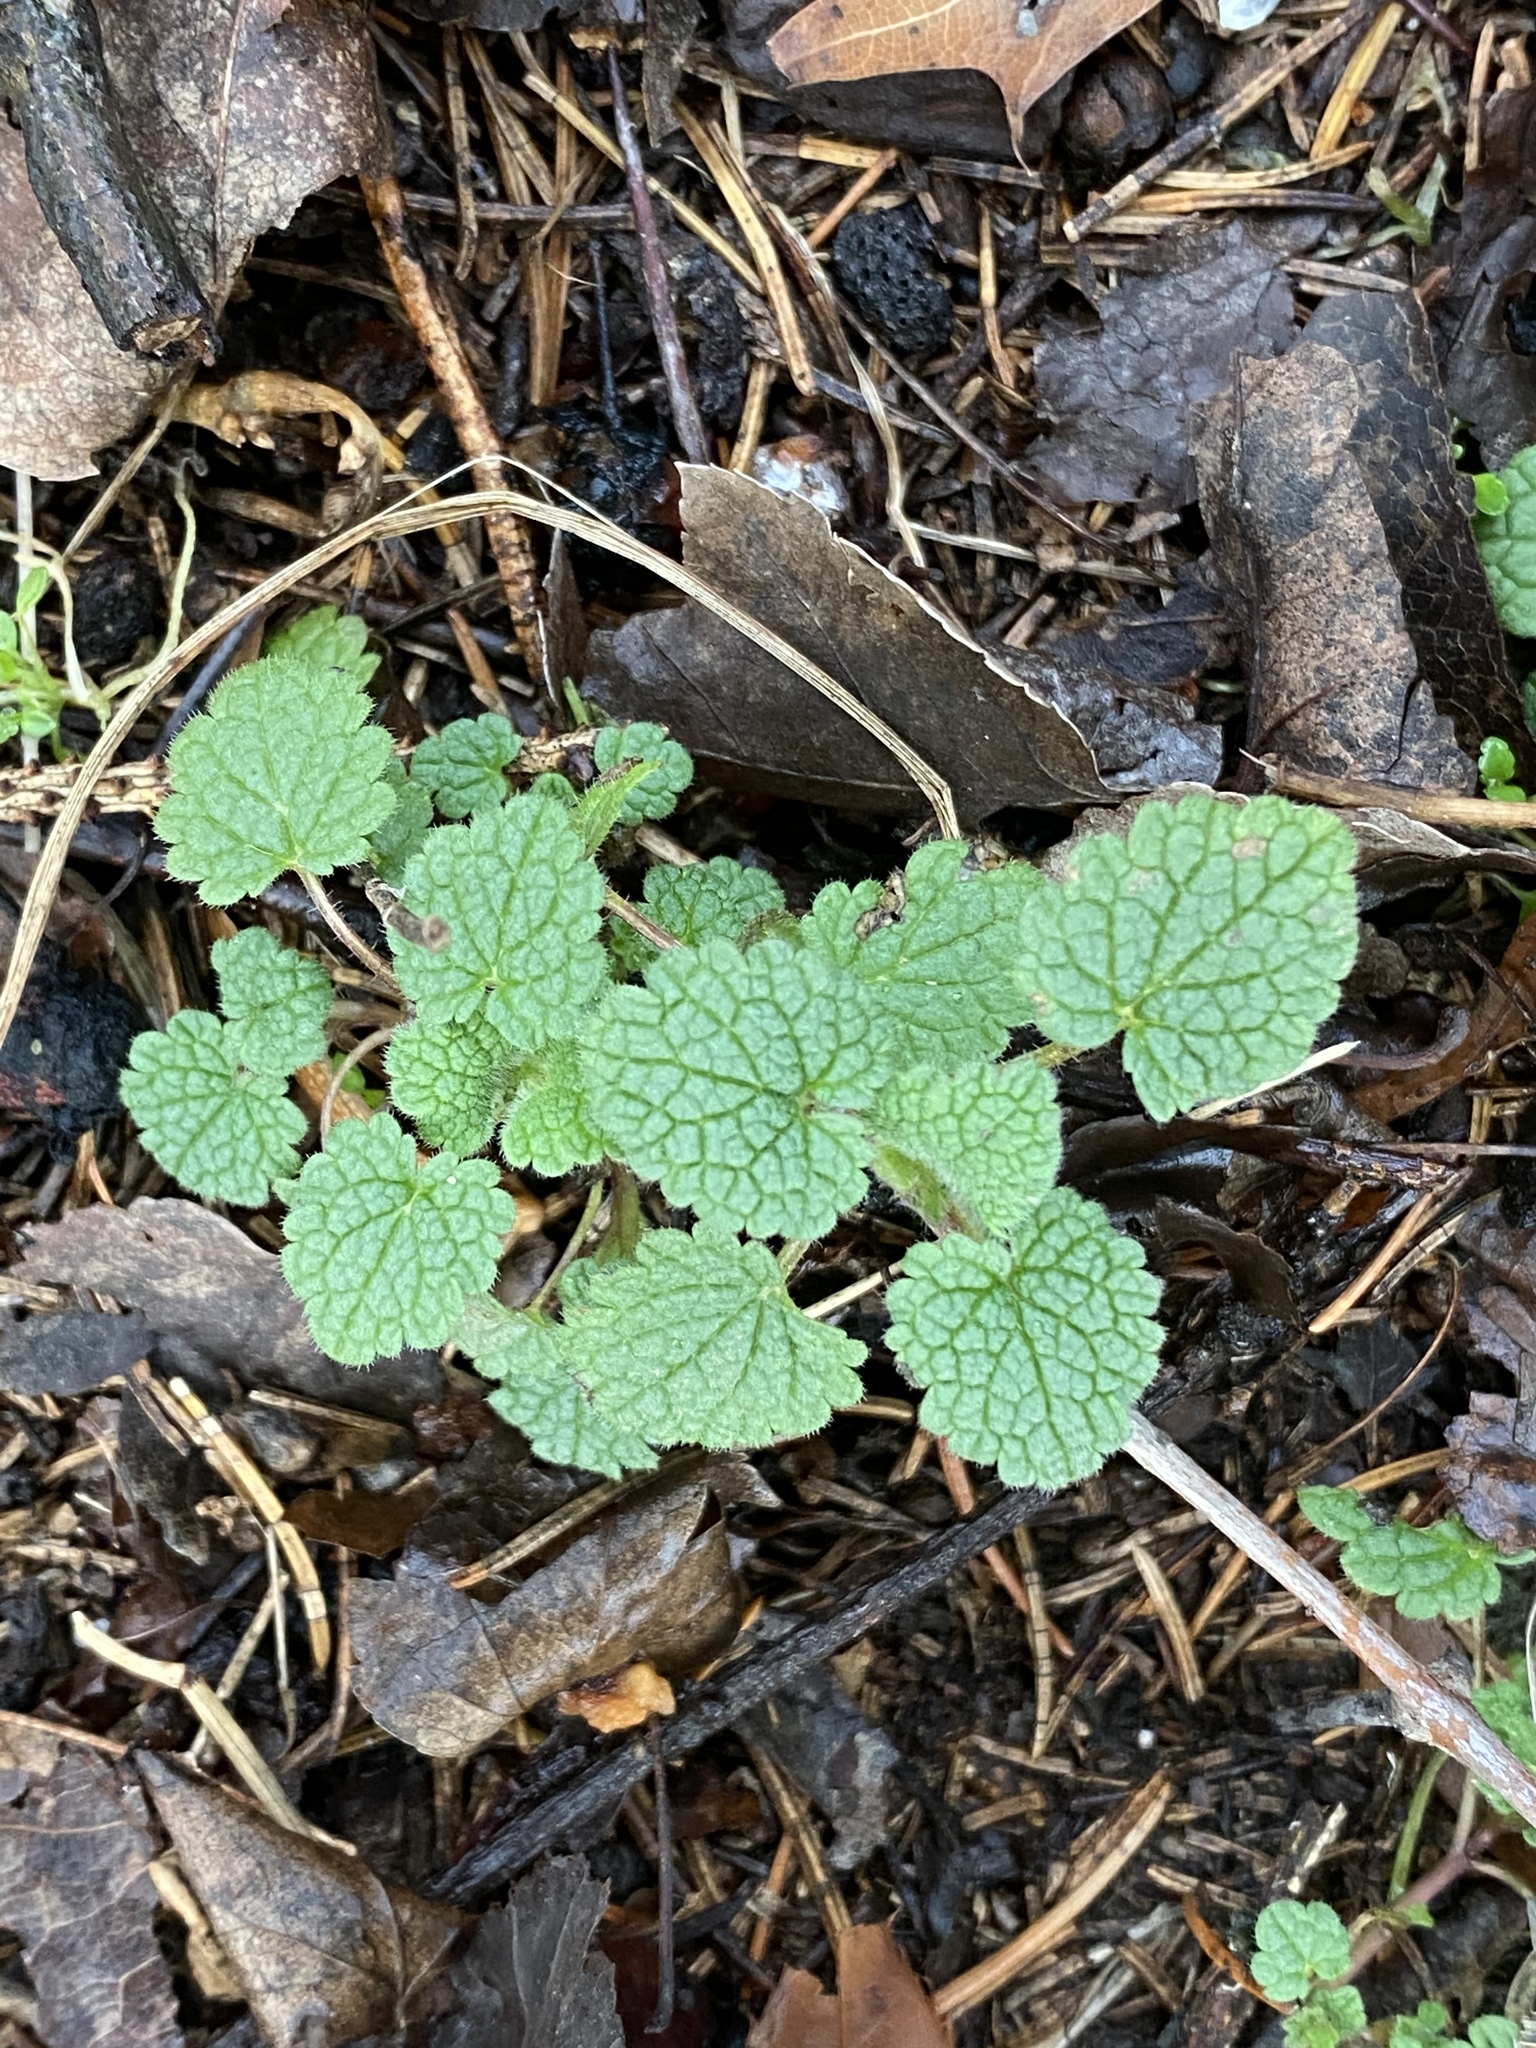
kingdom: Plantae
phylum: Tracheophyta
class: Magnoliopsida
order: Lamiales
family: Lamiaceae
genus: Lamium
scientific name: Lamium purpureum
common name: Red dead-nettle
